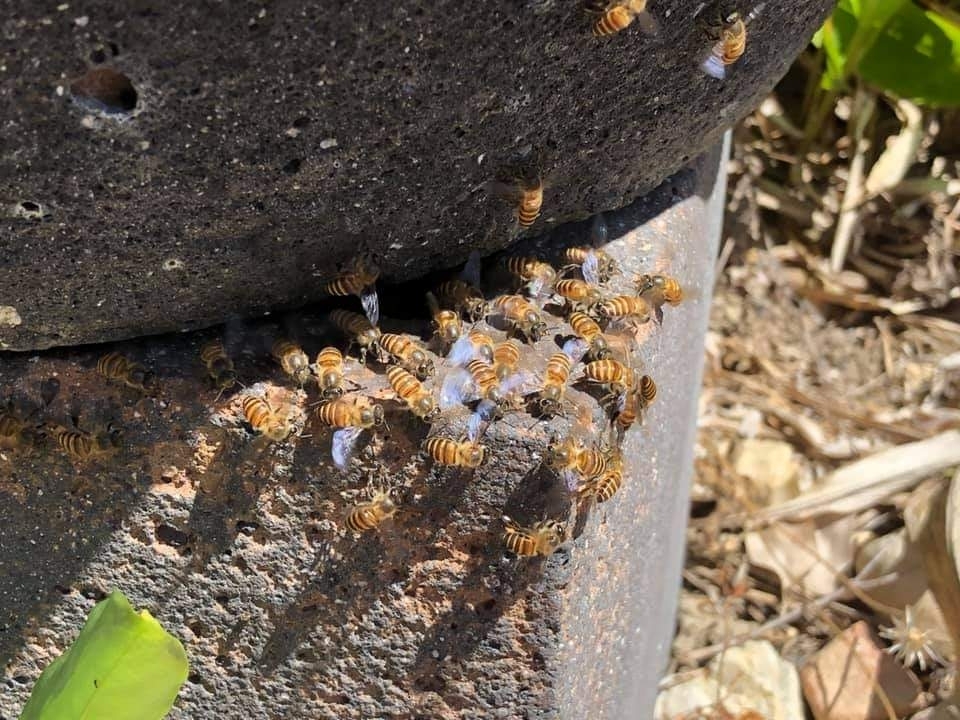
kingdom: Animalia
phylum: Arthropoda
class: Insecta
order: Hymenoptera
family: Apidae
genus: Apis
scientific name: Apis cerana
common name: Honey bee
